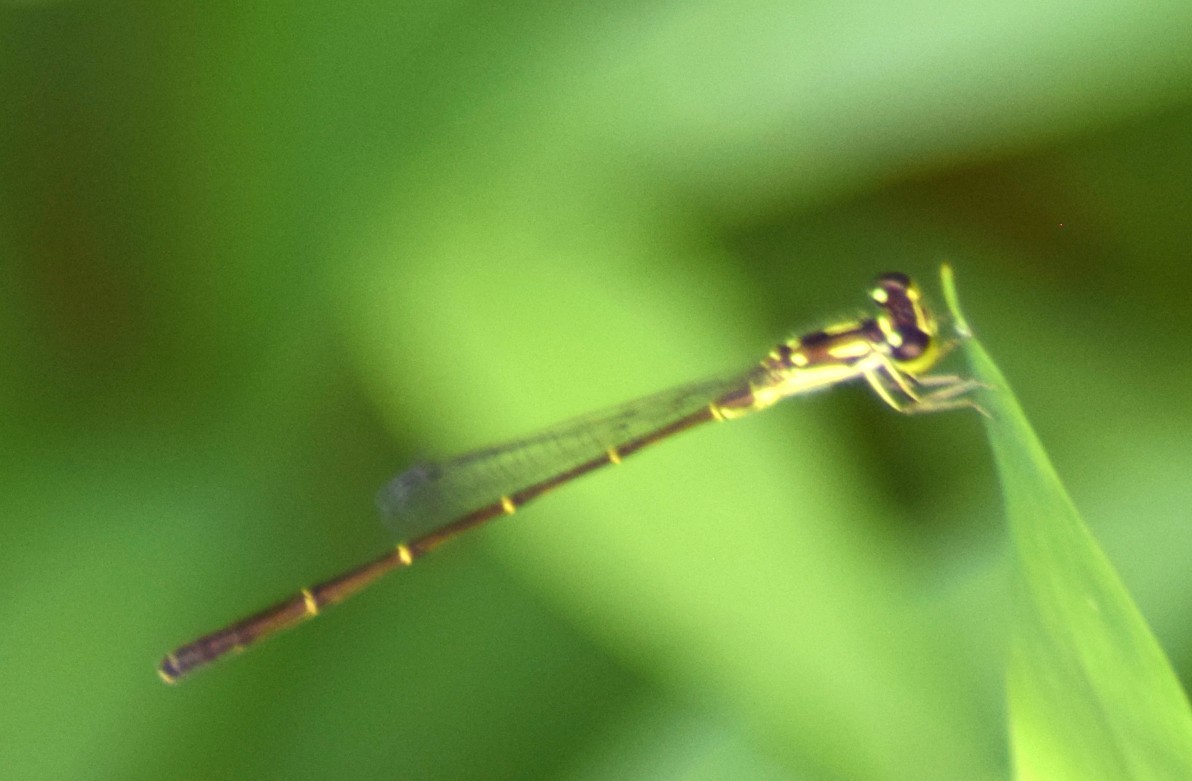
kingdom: Animalia
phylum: Arthropoda
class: Insecta
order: Odonata
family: Coenagrionidae
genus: Ischnura
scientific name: Ischnura posita
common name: Fragile forktail
